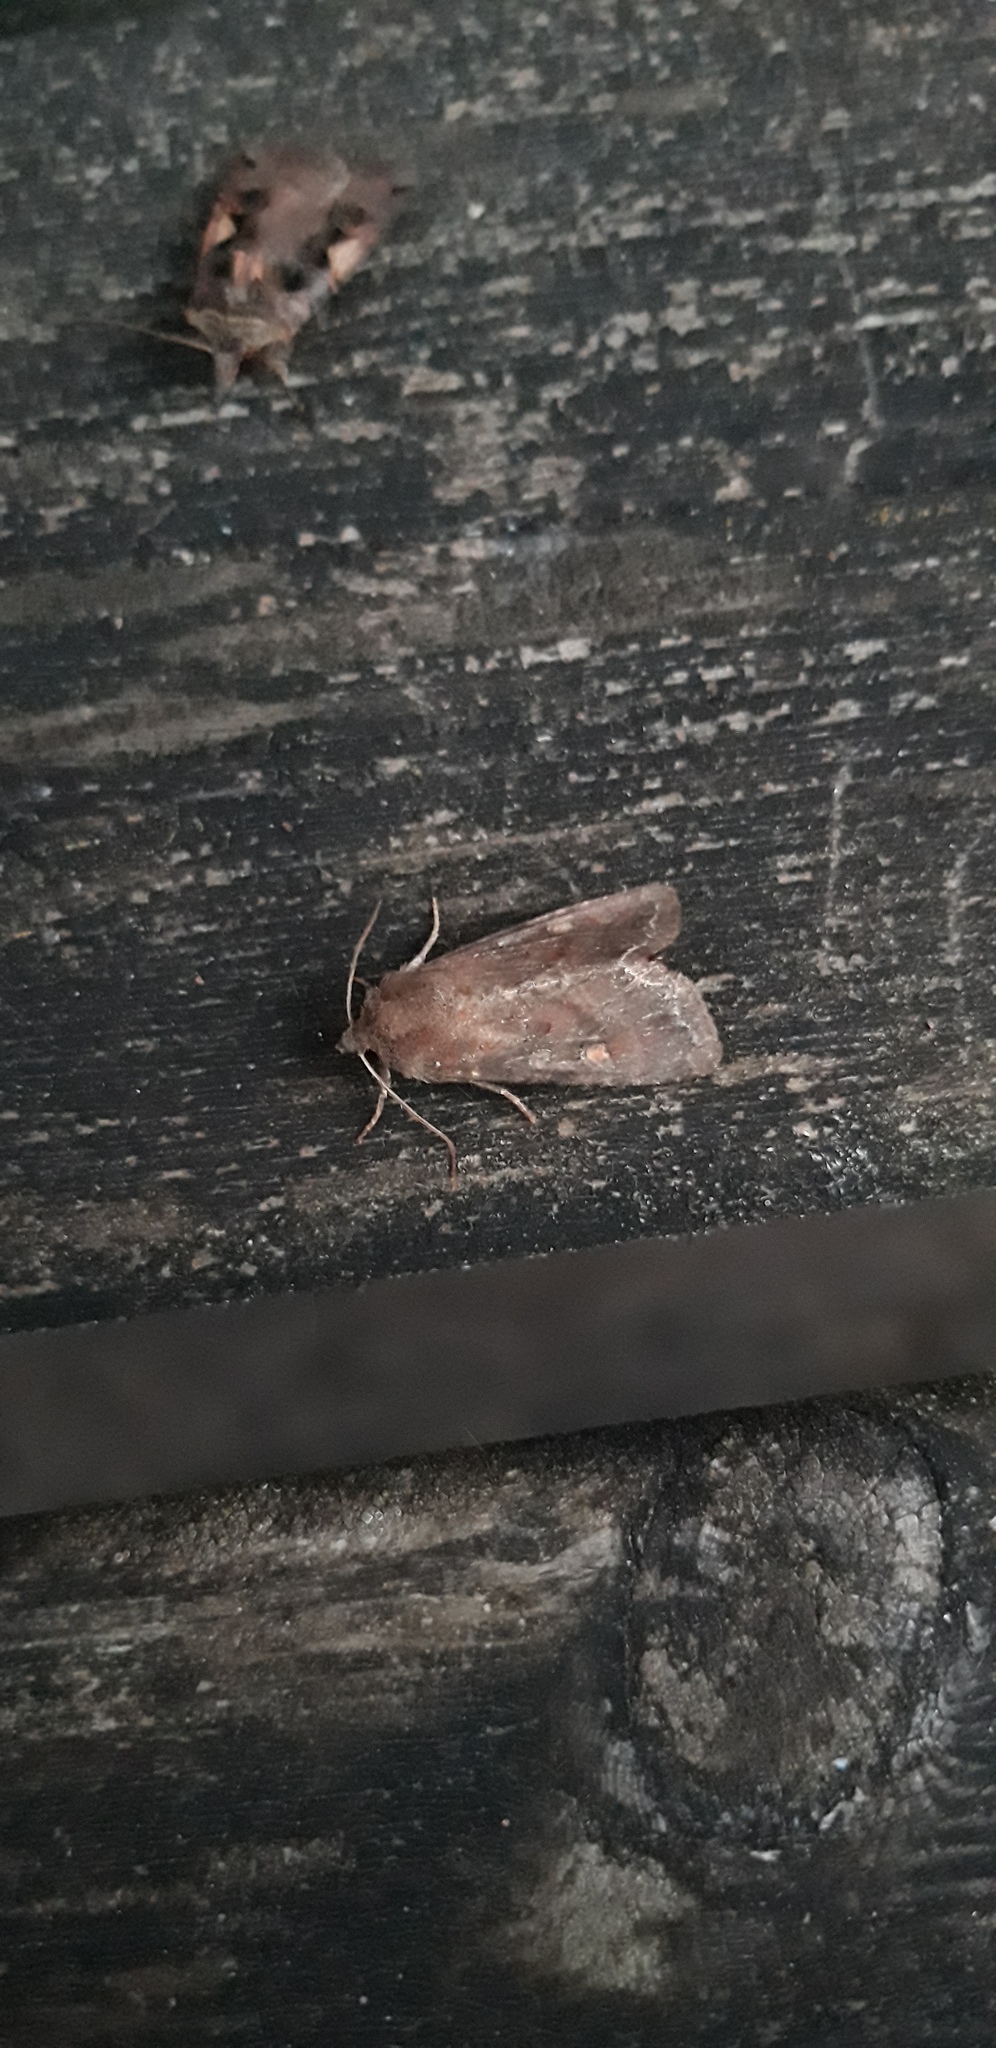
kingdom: Animalia
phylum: Arthropoda
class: Insecta
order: Lepidoptera
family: Noctuidae
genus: Lacanobia
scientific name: Lacanobia oleracea
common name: Bright-line brown-eye
